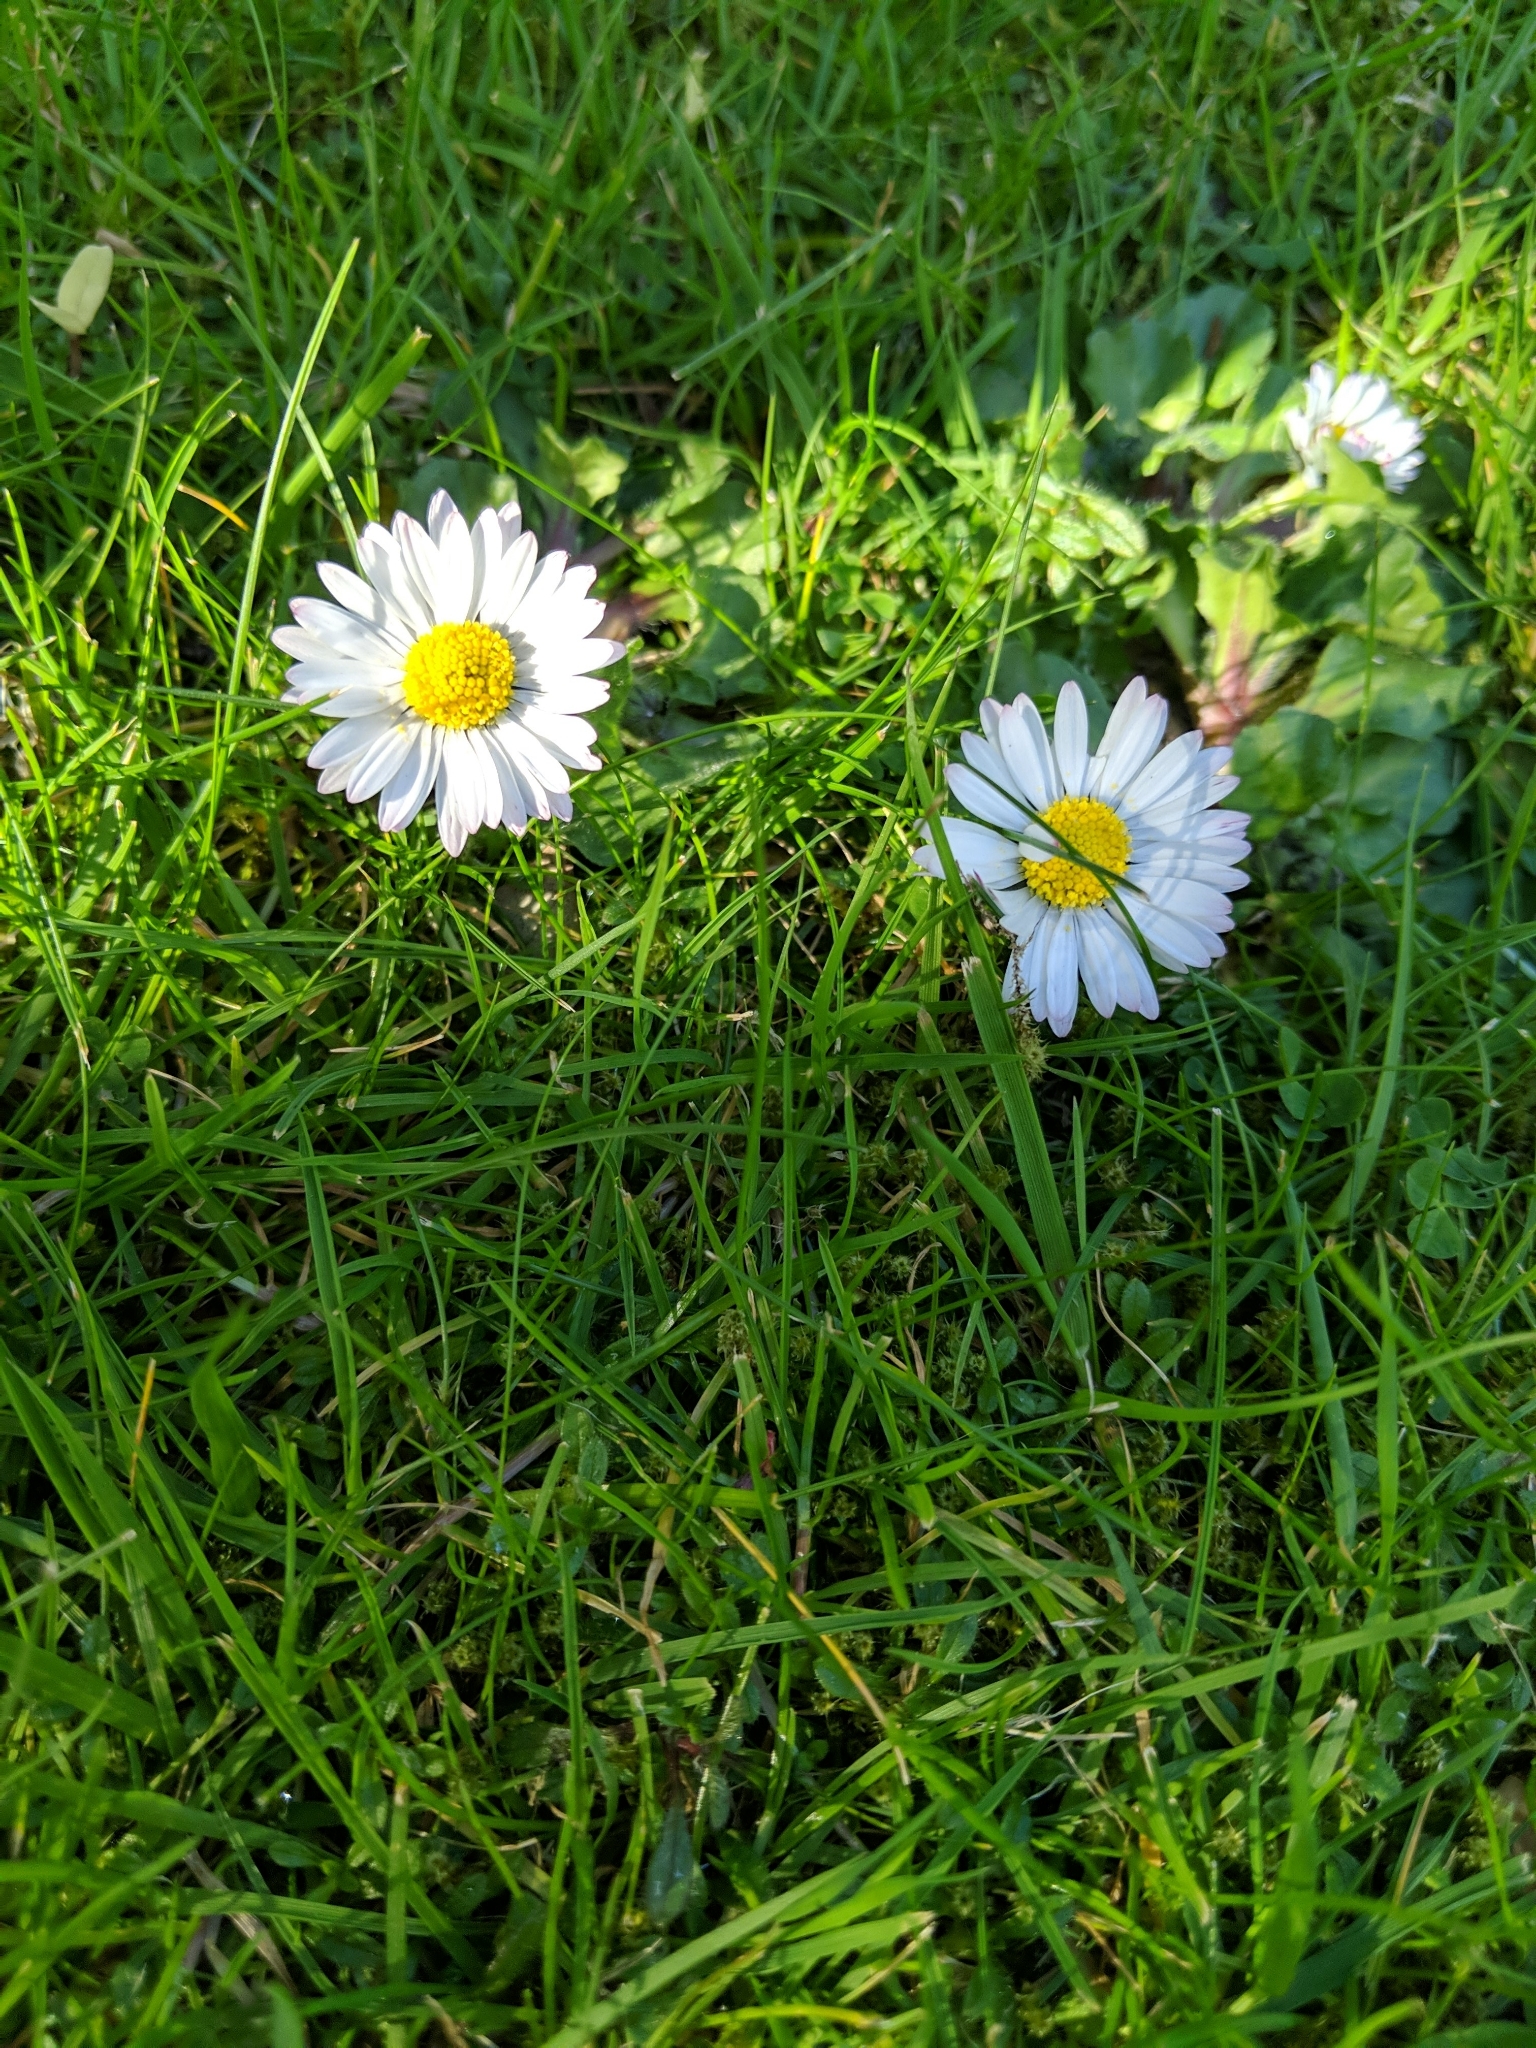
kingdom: Plantae
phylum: Tracheophyta
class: Magnoliopsida
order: Asterales
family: Asteraceae
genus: Bellis
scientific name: Bellis perennis
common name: Lawndaisy
